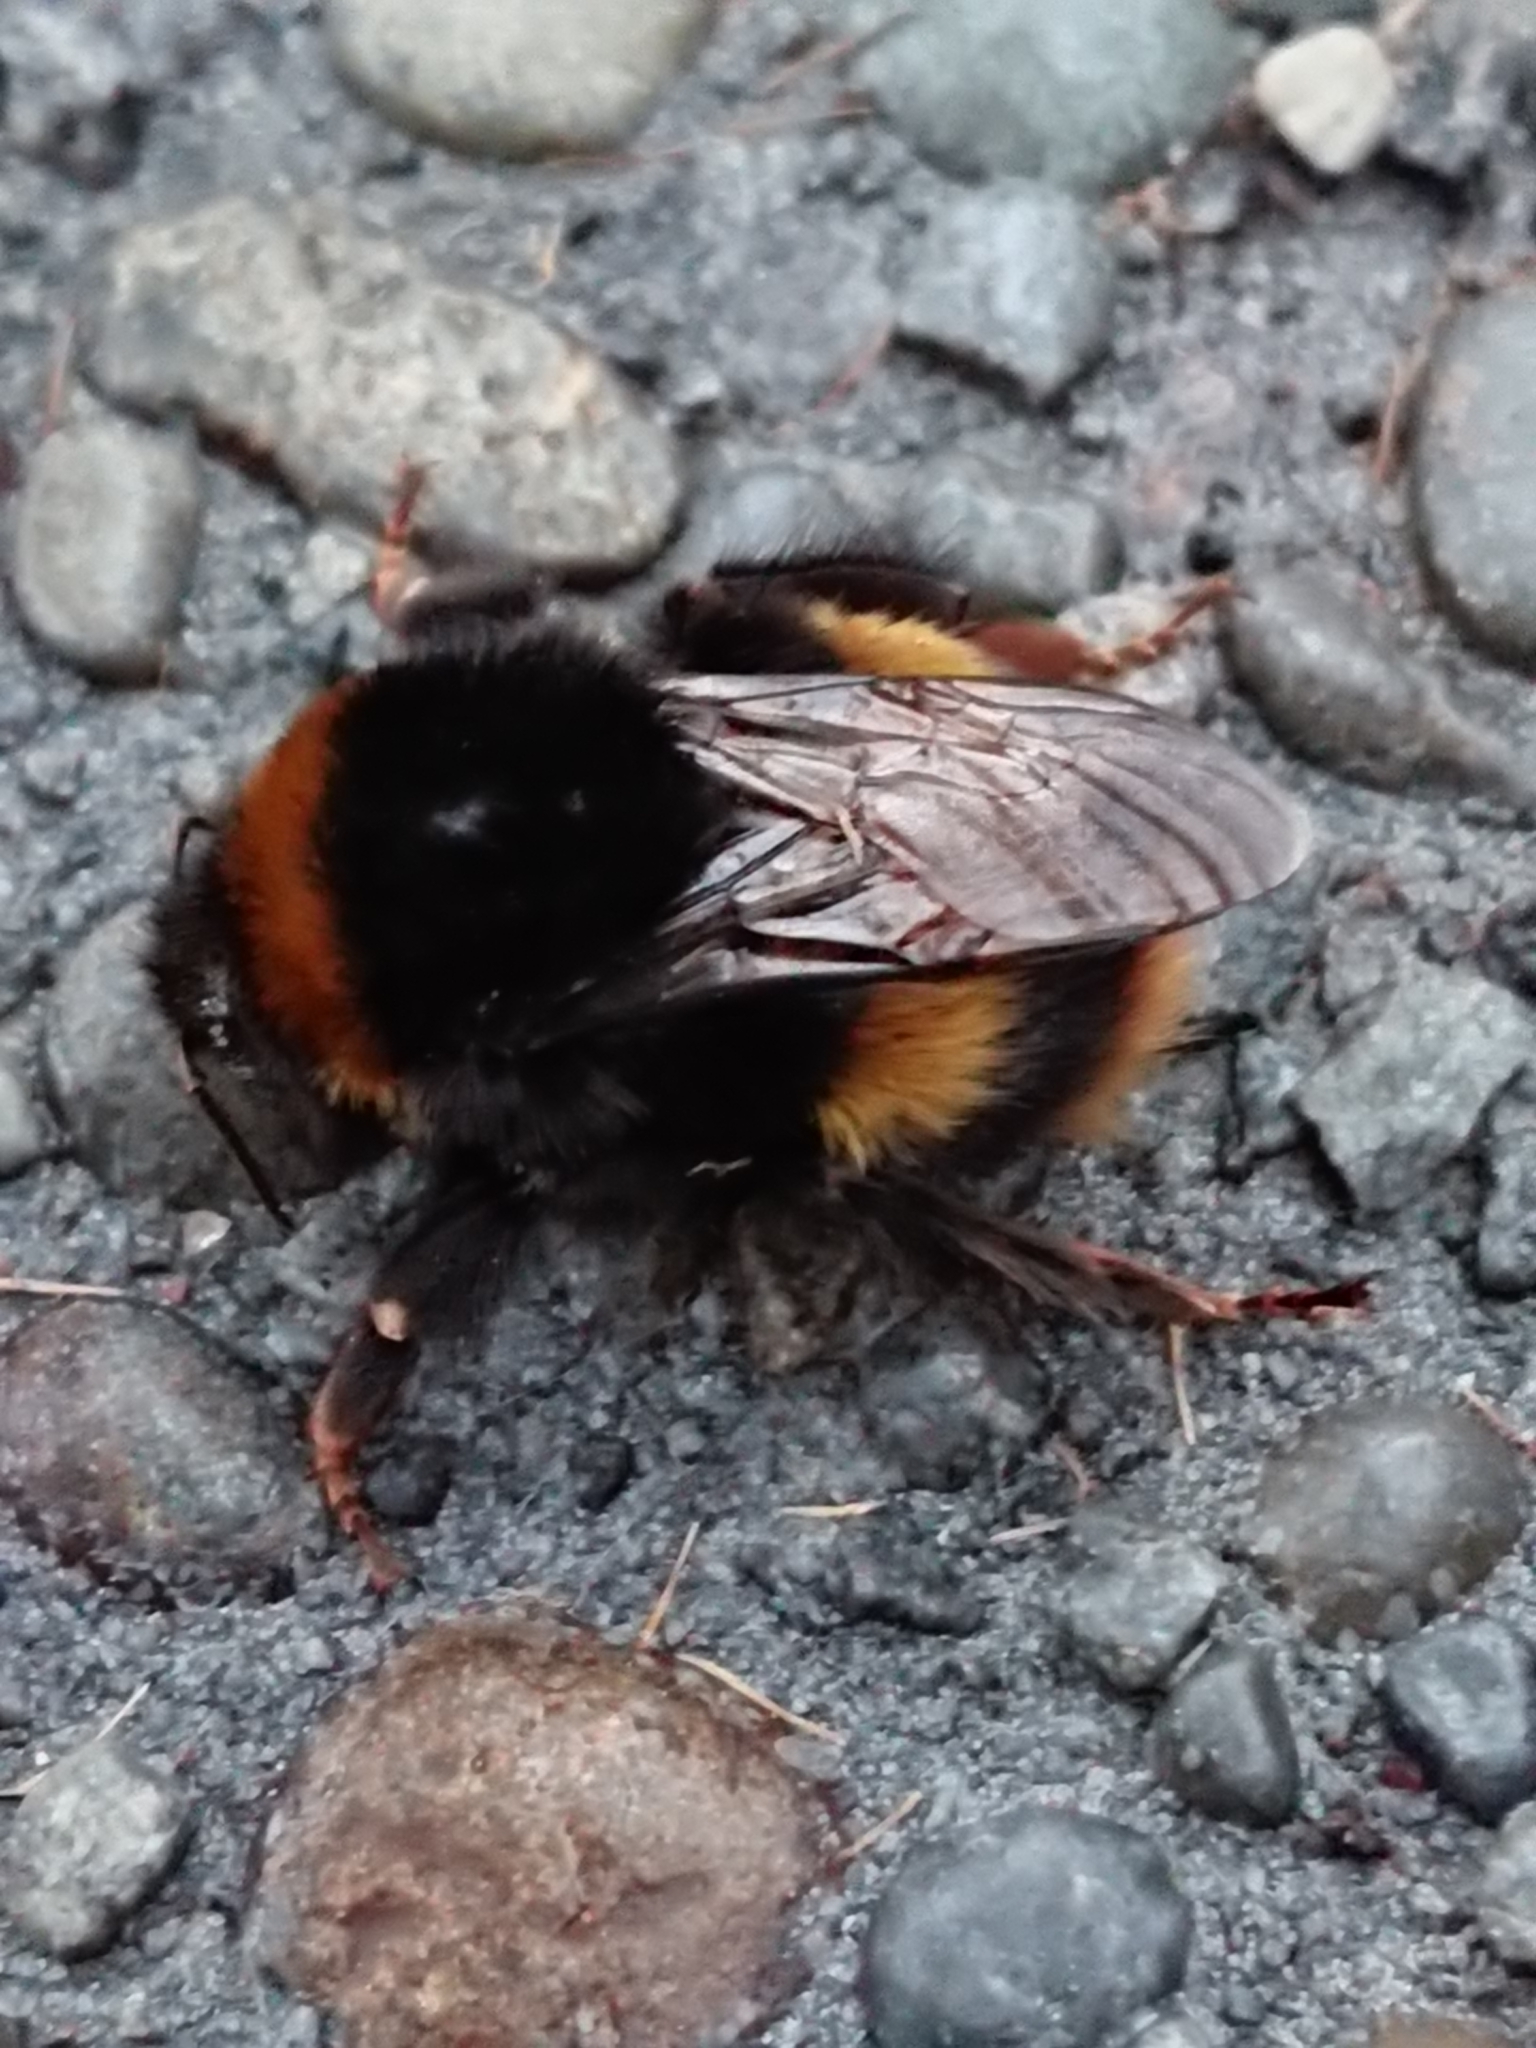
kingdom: Animalia
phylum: Arthropoda
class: Insecta
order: Hymenoptera
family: Apidae
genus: Bombus
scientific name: Bombus terrestris
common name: Buff-tailed bumblebee
